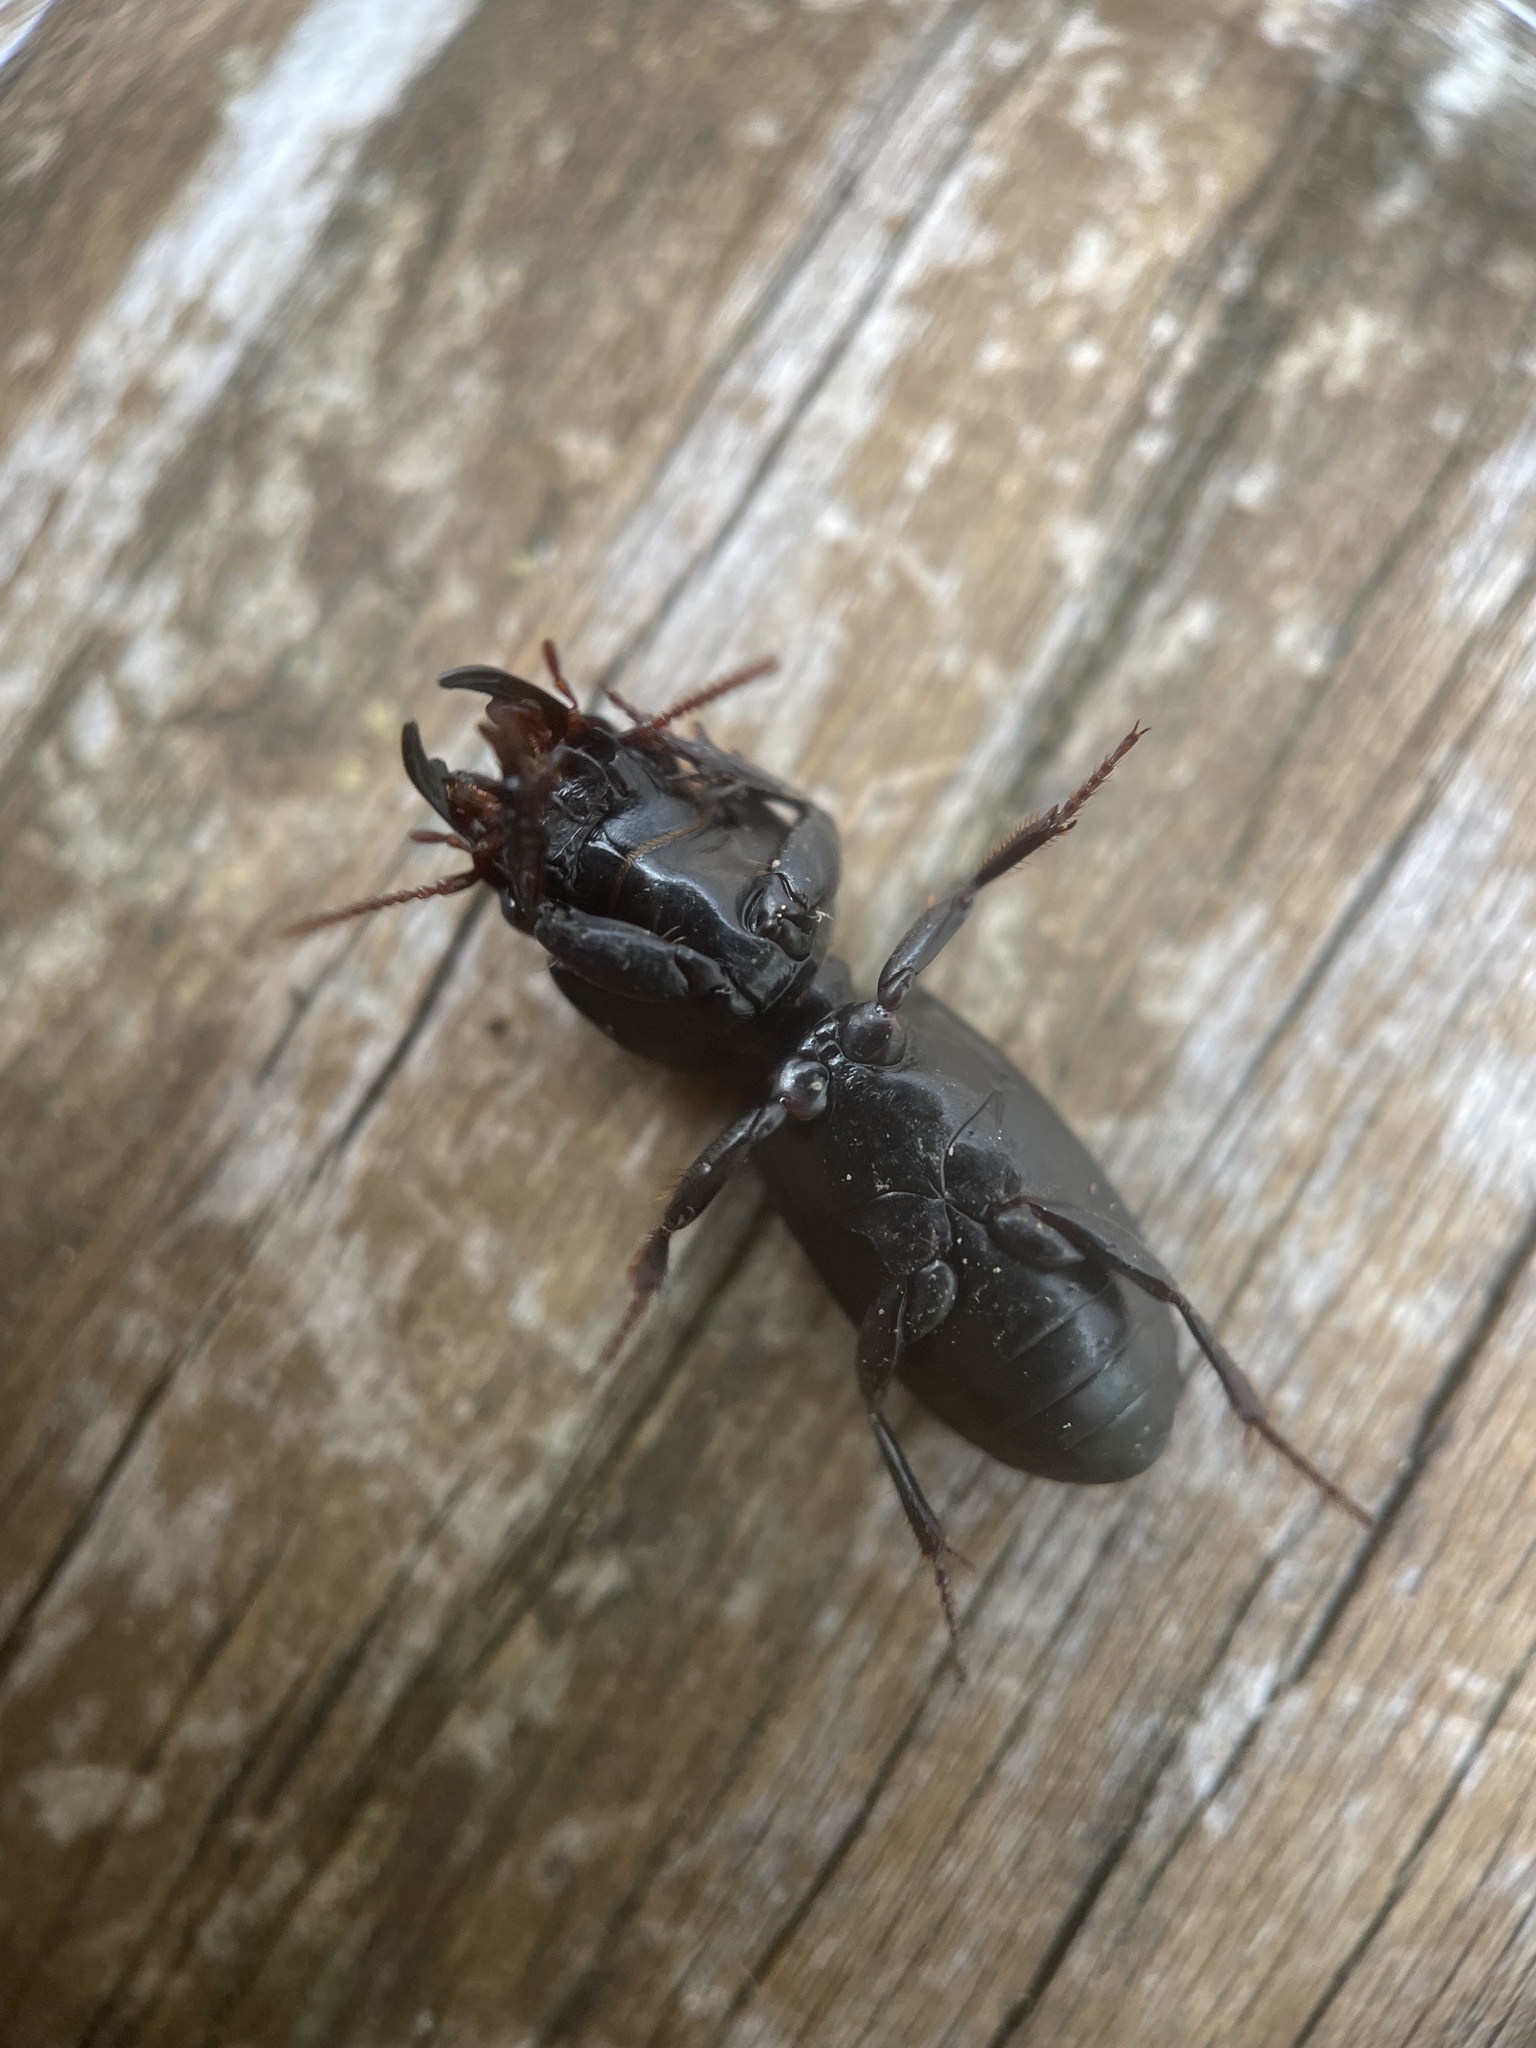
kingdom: Animalia
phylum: Arthropoda
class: Insecta
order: Coleoptera
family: Carabidae
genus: Scarites
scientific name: Scarites subterraneus
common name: Big-headed ground beetle
